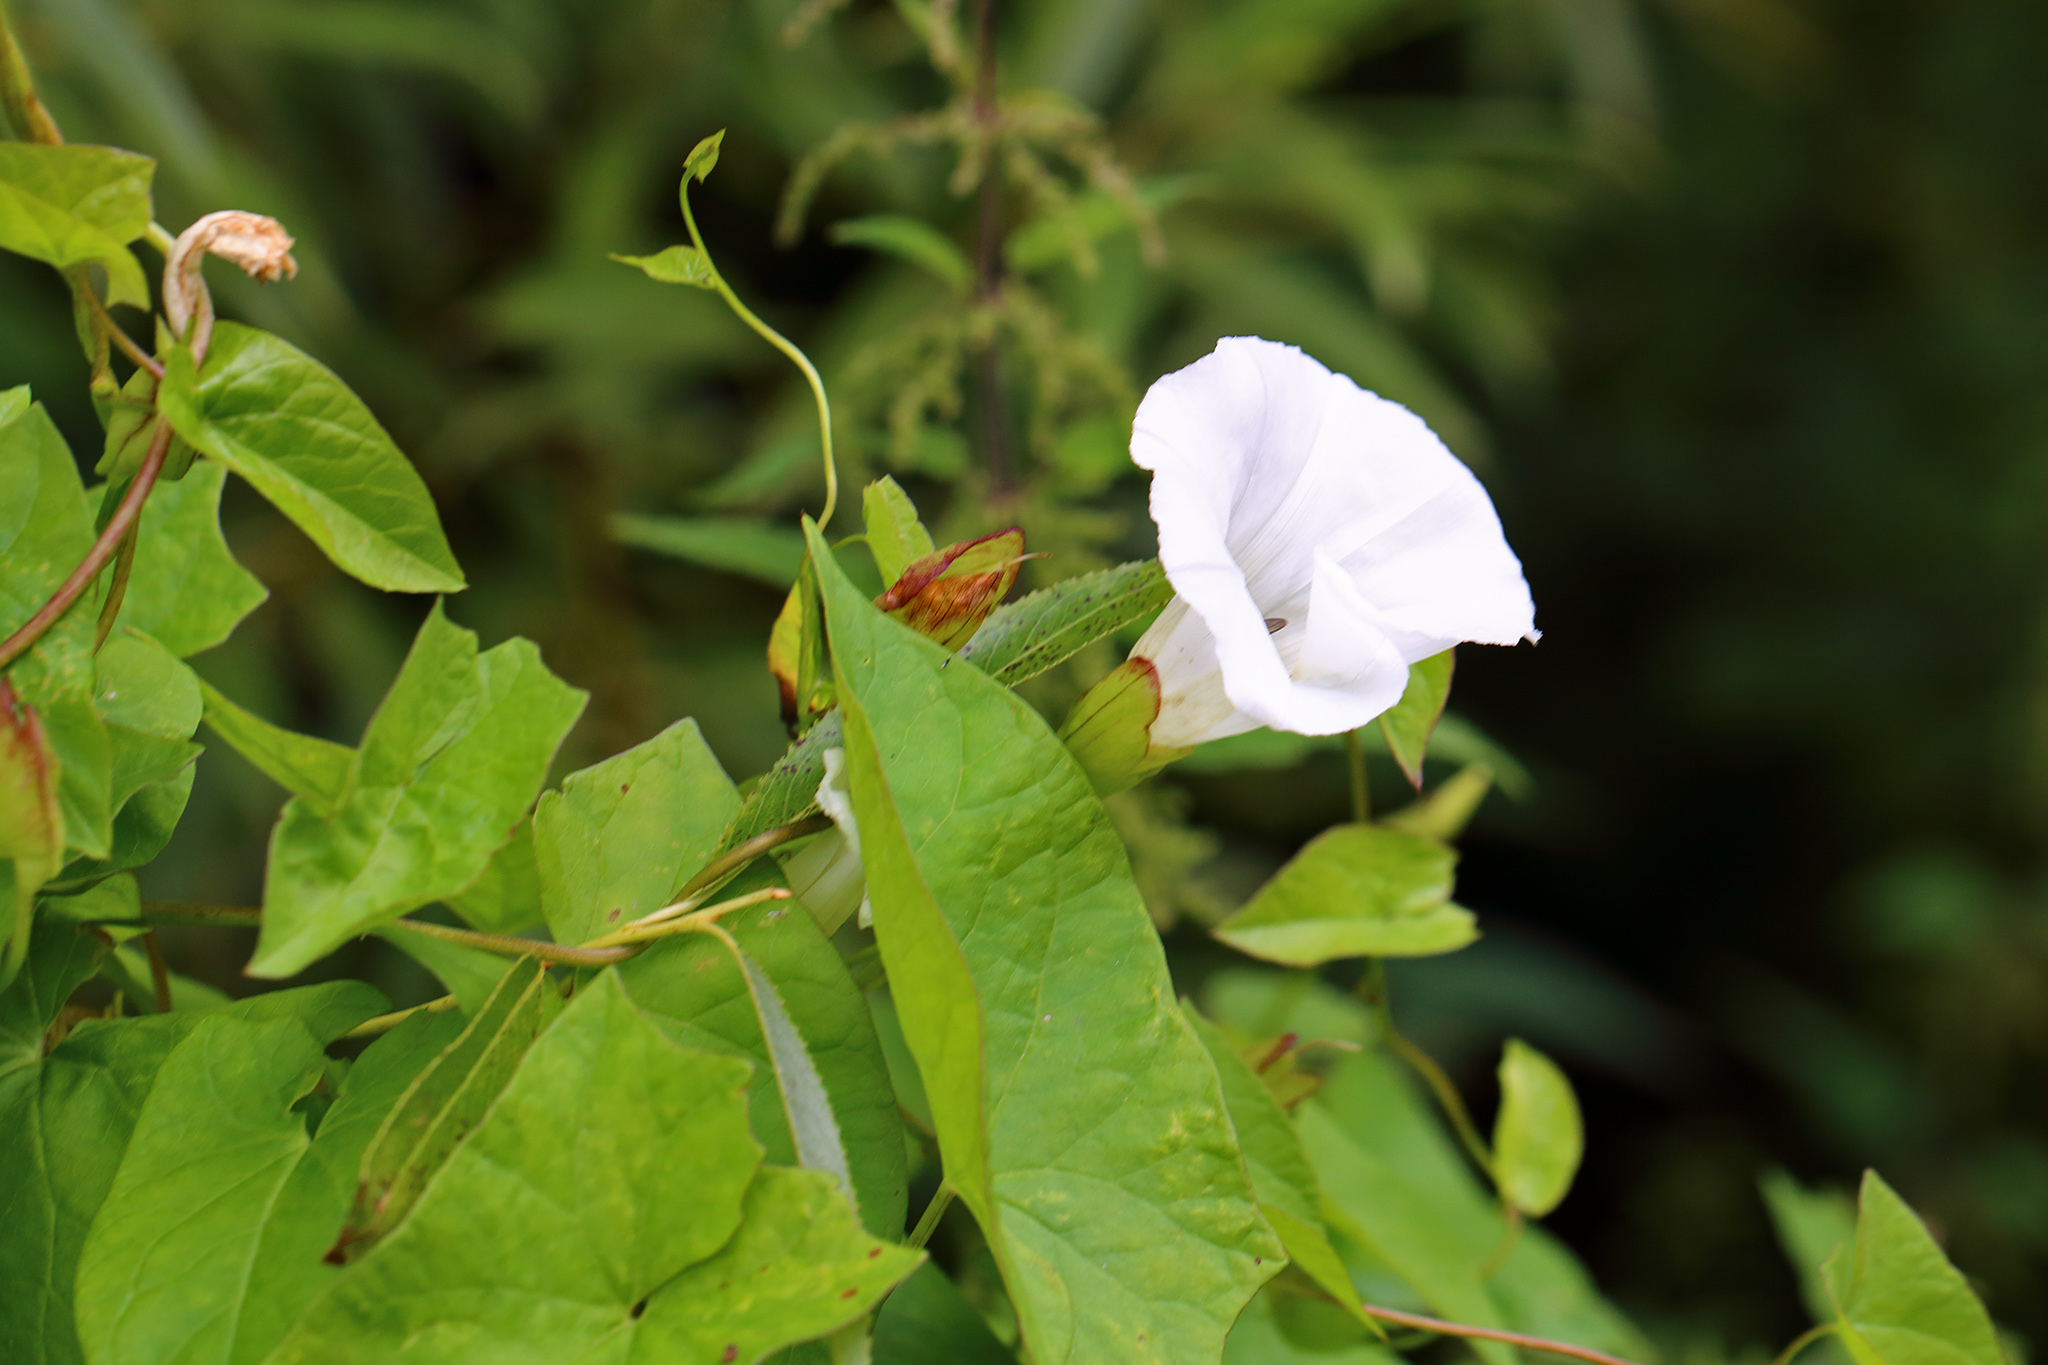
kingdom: Plantae
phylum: Tracheophyta
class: Magnoliopsida
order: Solanales
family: Convolvulaceae
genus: Calystegia
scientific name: Calystegia sepium
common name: Hedge bindweed
